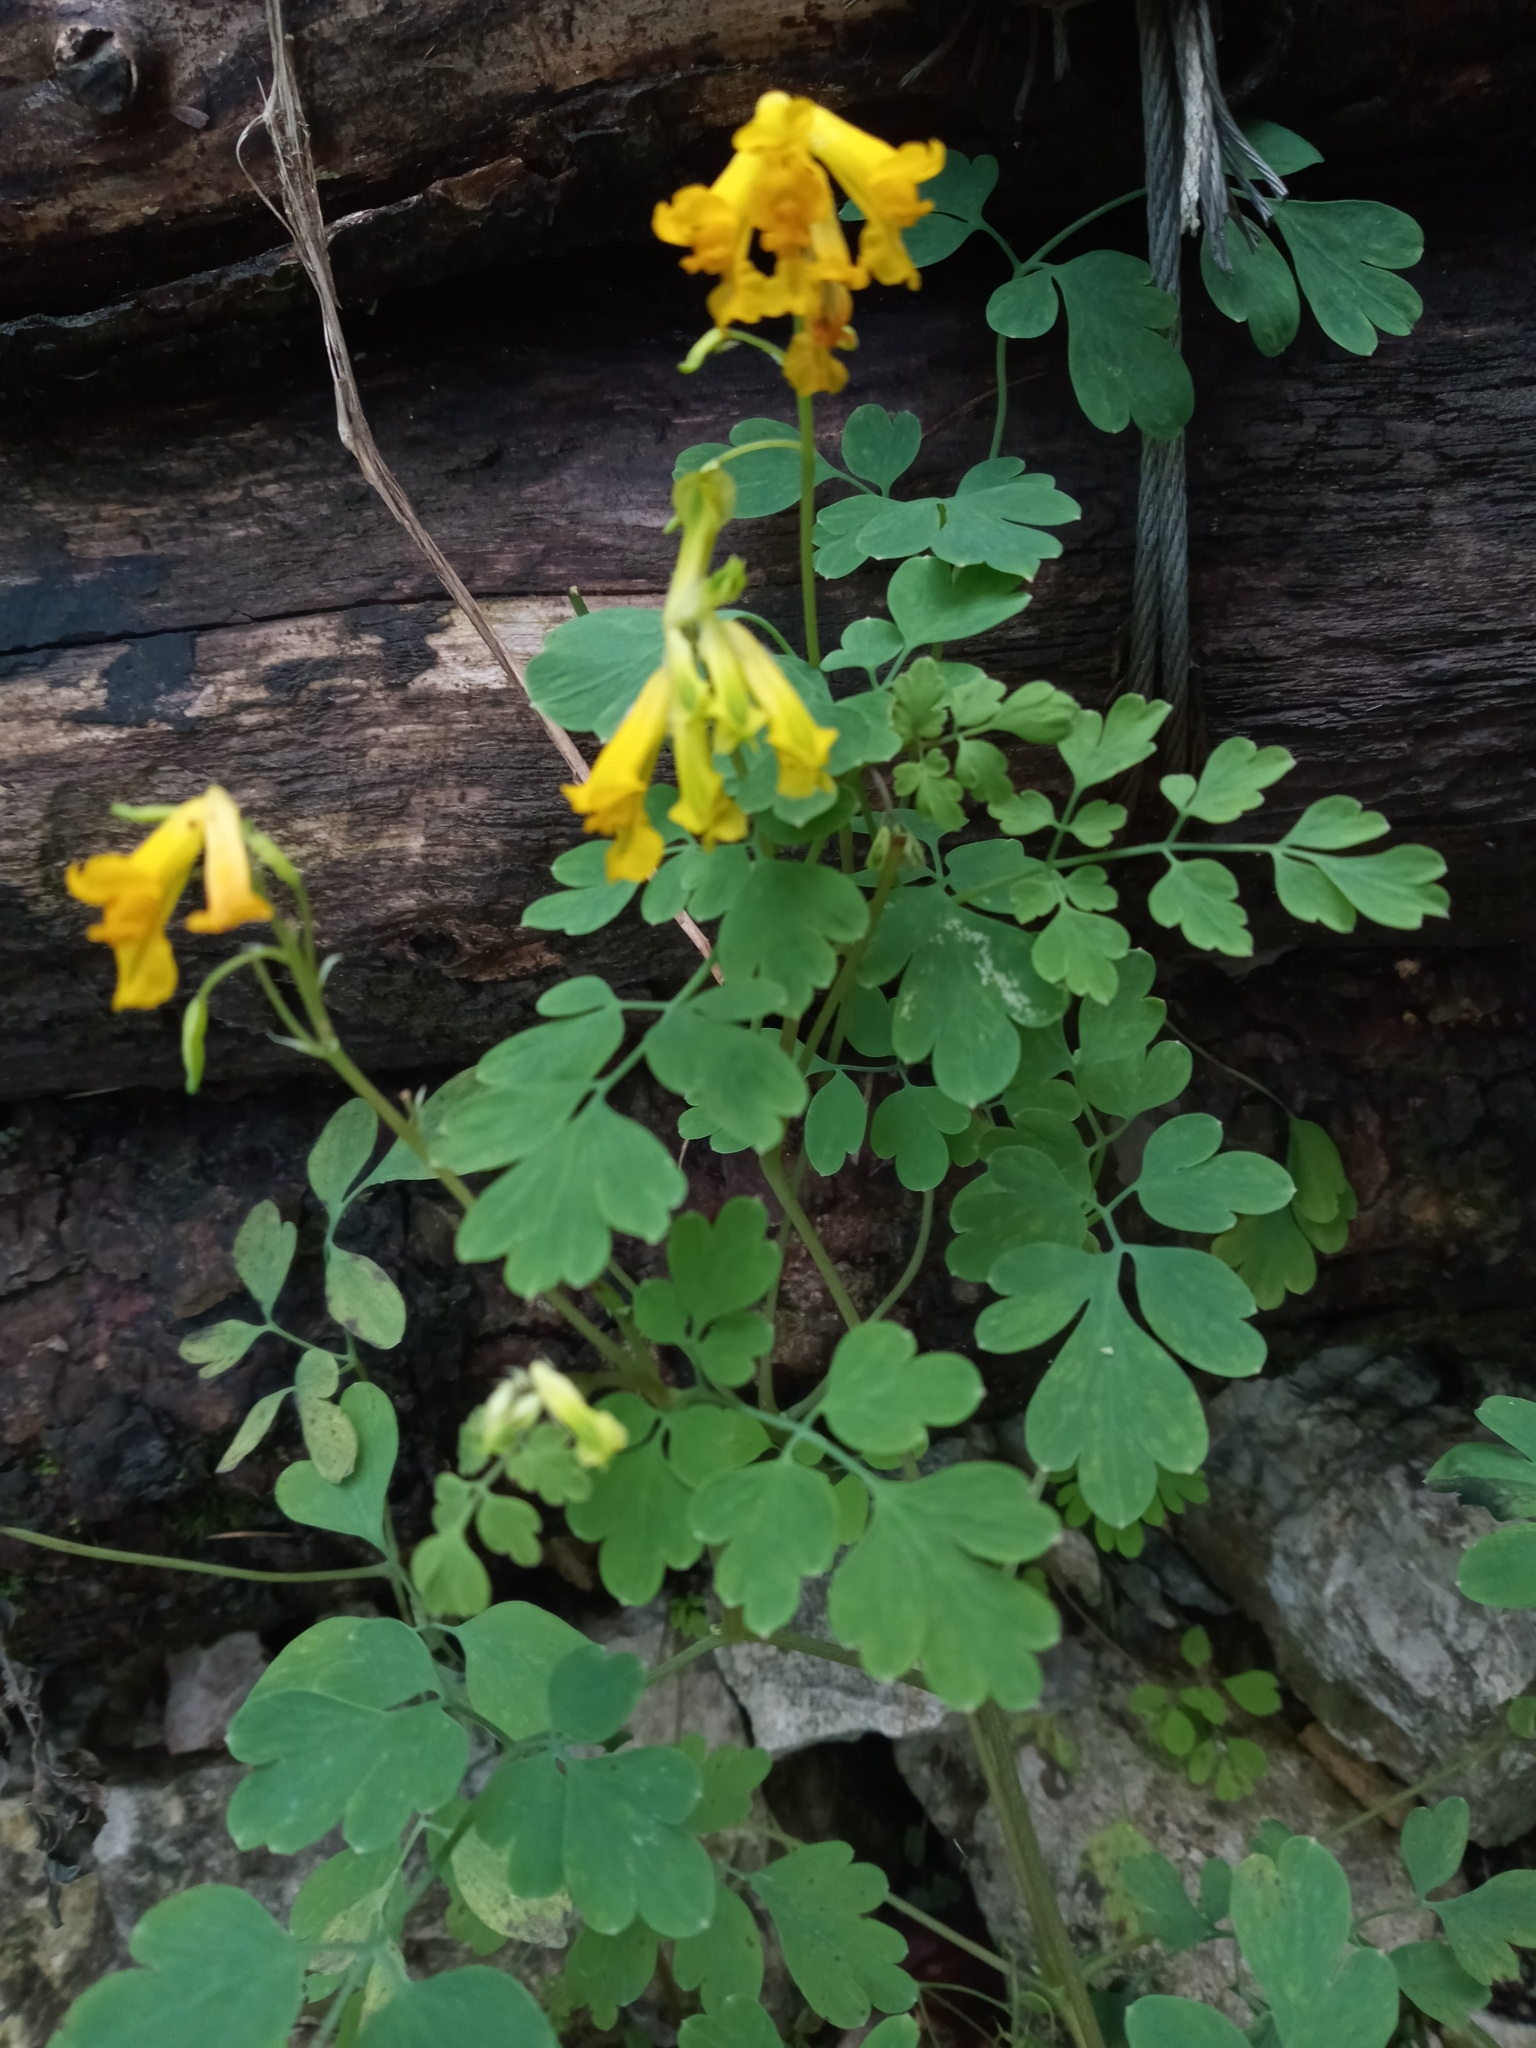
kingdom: Plantae
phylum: Tracheophyta
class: Magnoliopsida
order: Ranunculales
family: Papaveraceae
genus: Pseudofumaria
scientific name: Pseudofumaria lutea
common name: Yellow corydalis
